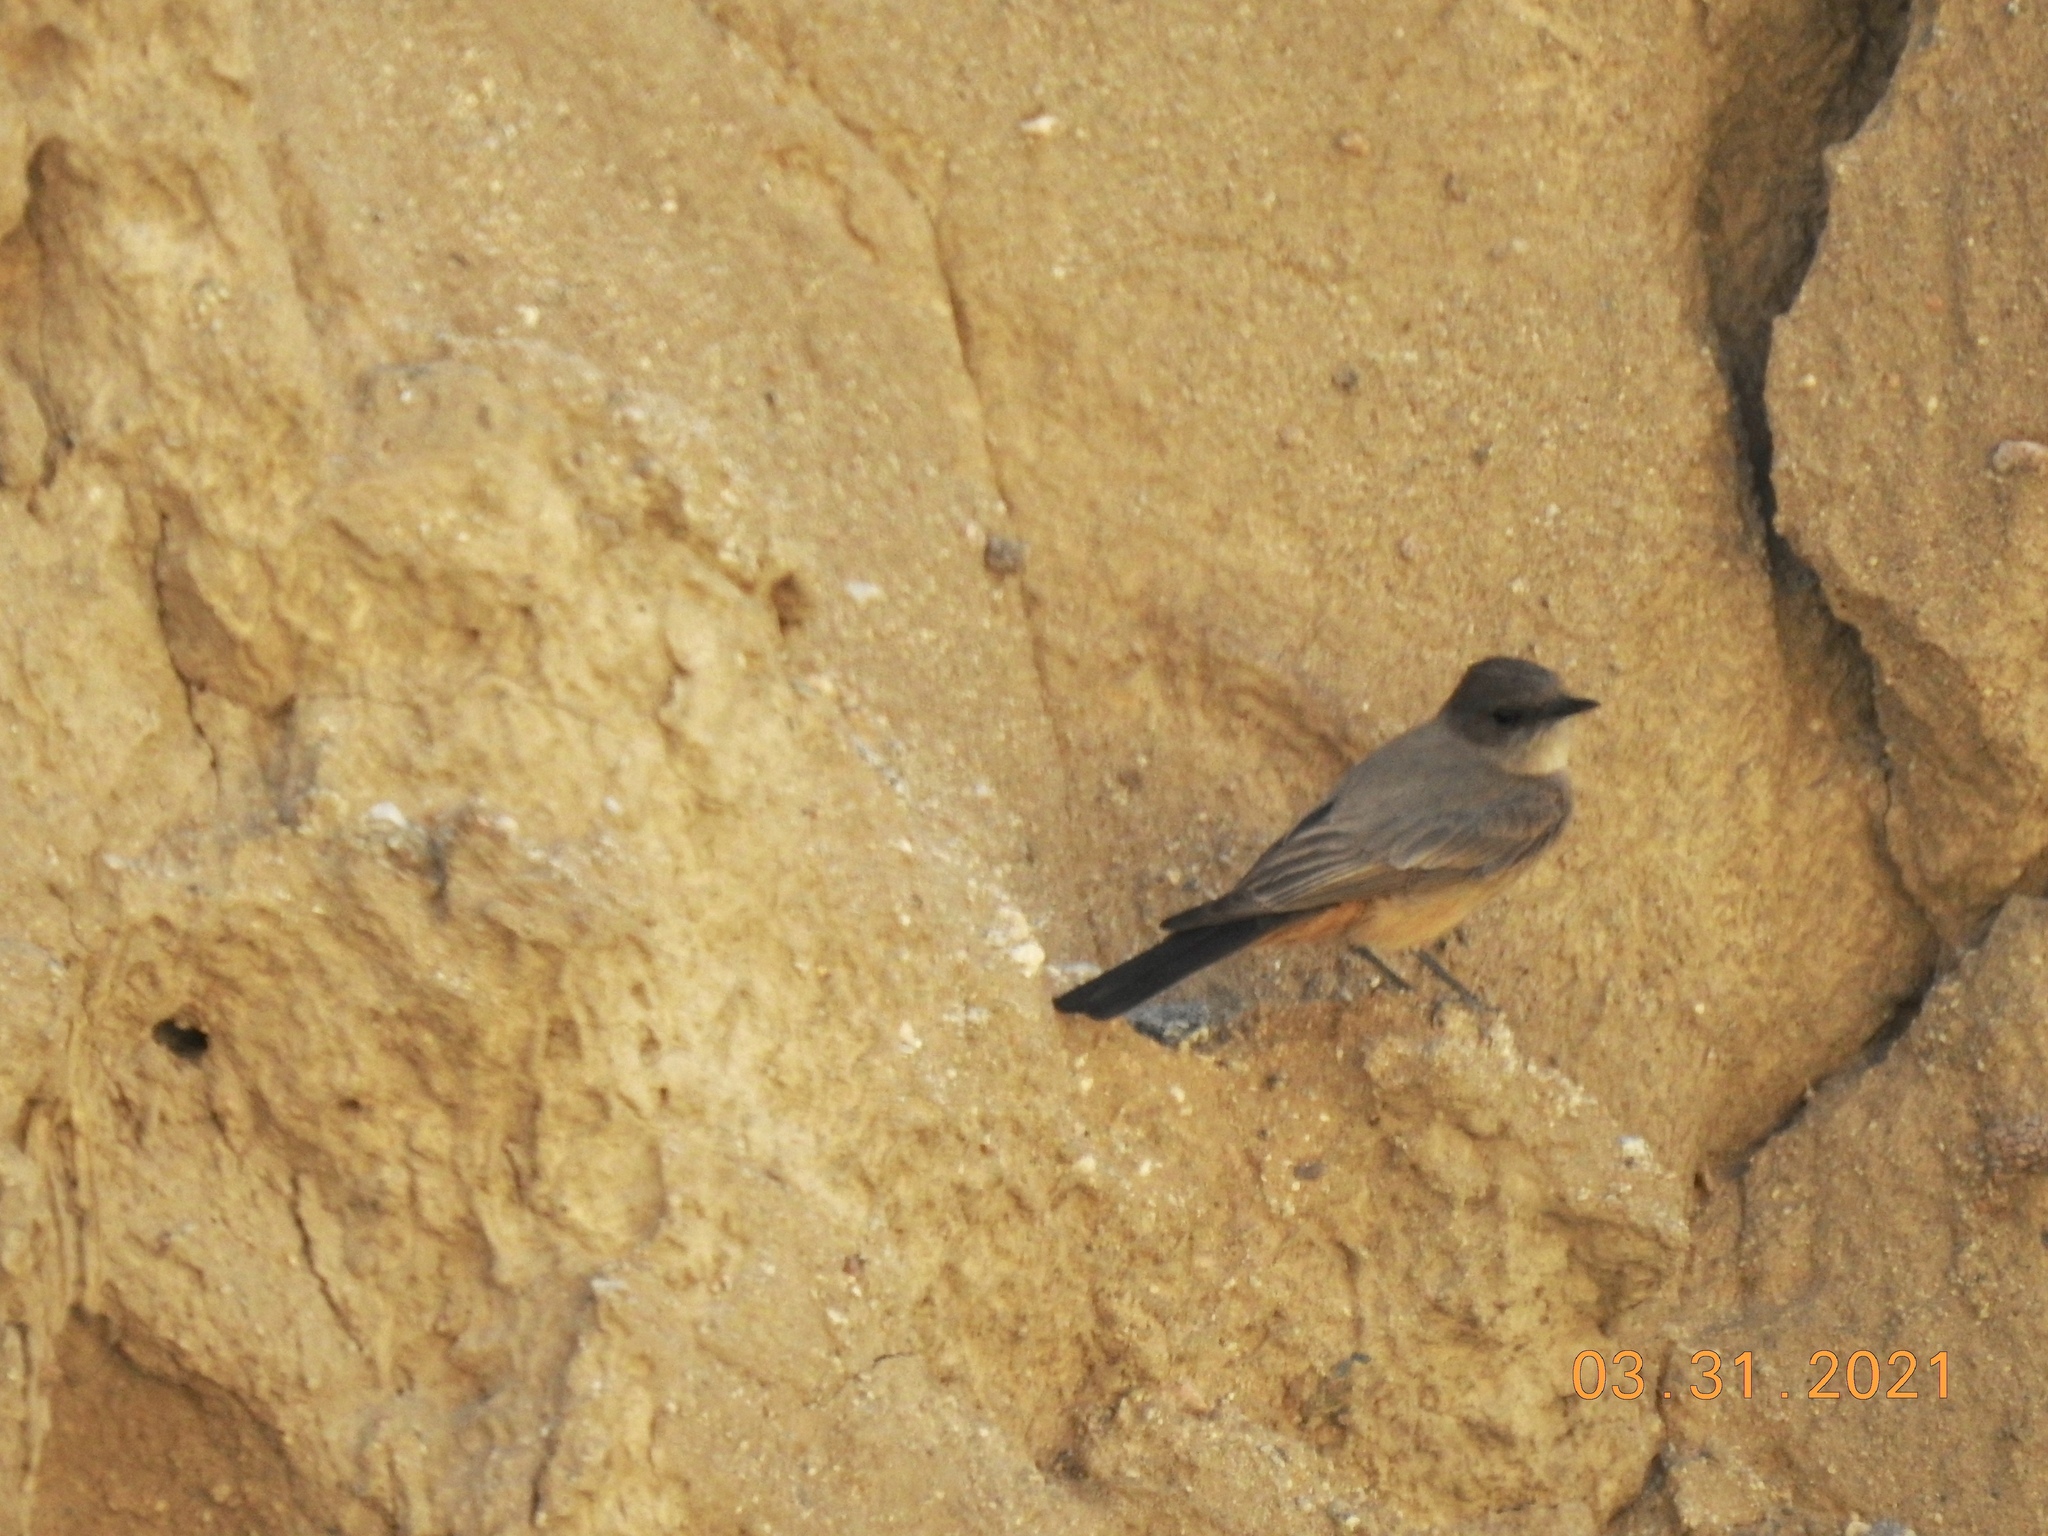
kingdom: Animalia
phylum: Chordata
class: Aves
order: Passeriformes
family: Tyrannidae
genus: Sayornis
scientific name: Sayornis saya
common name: Say's phoebe
